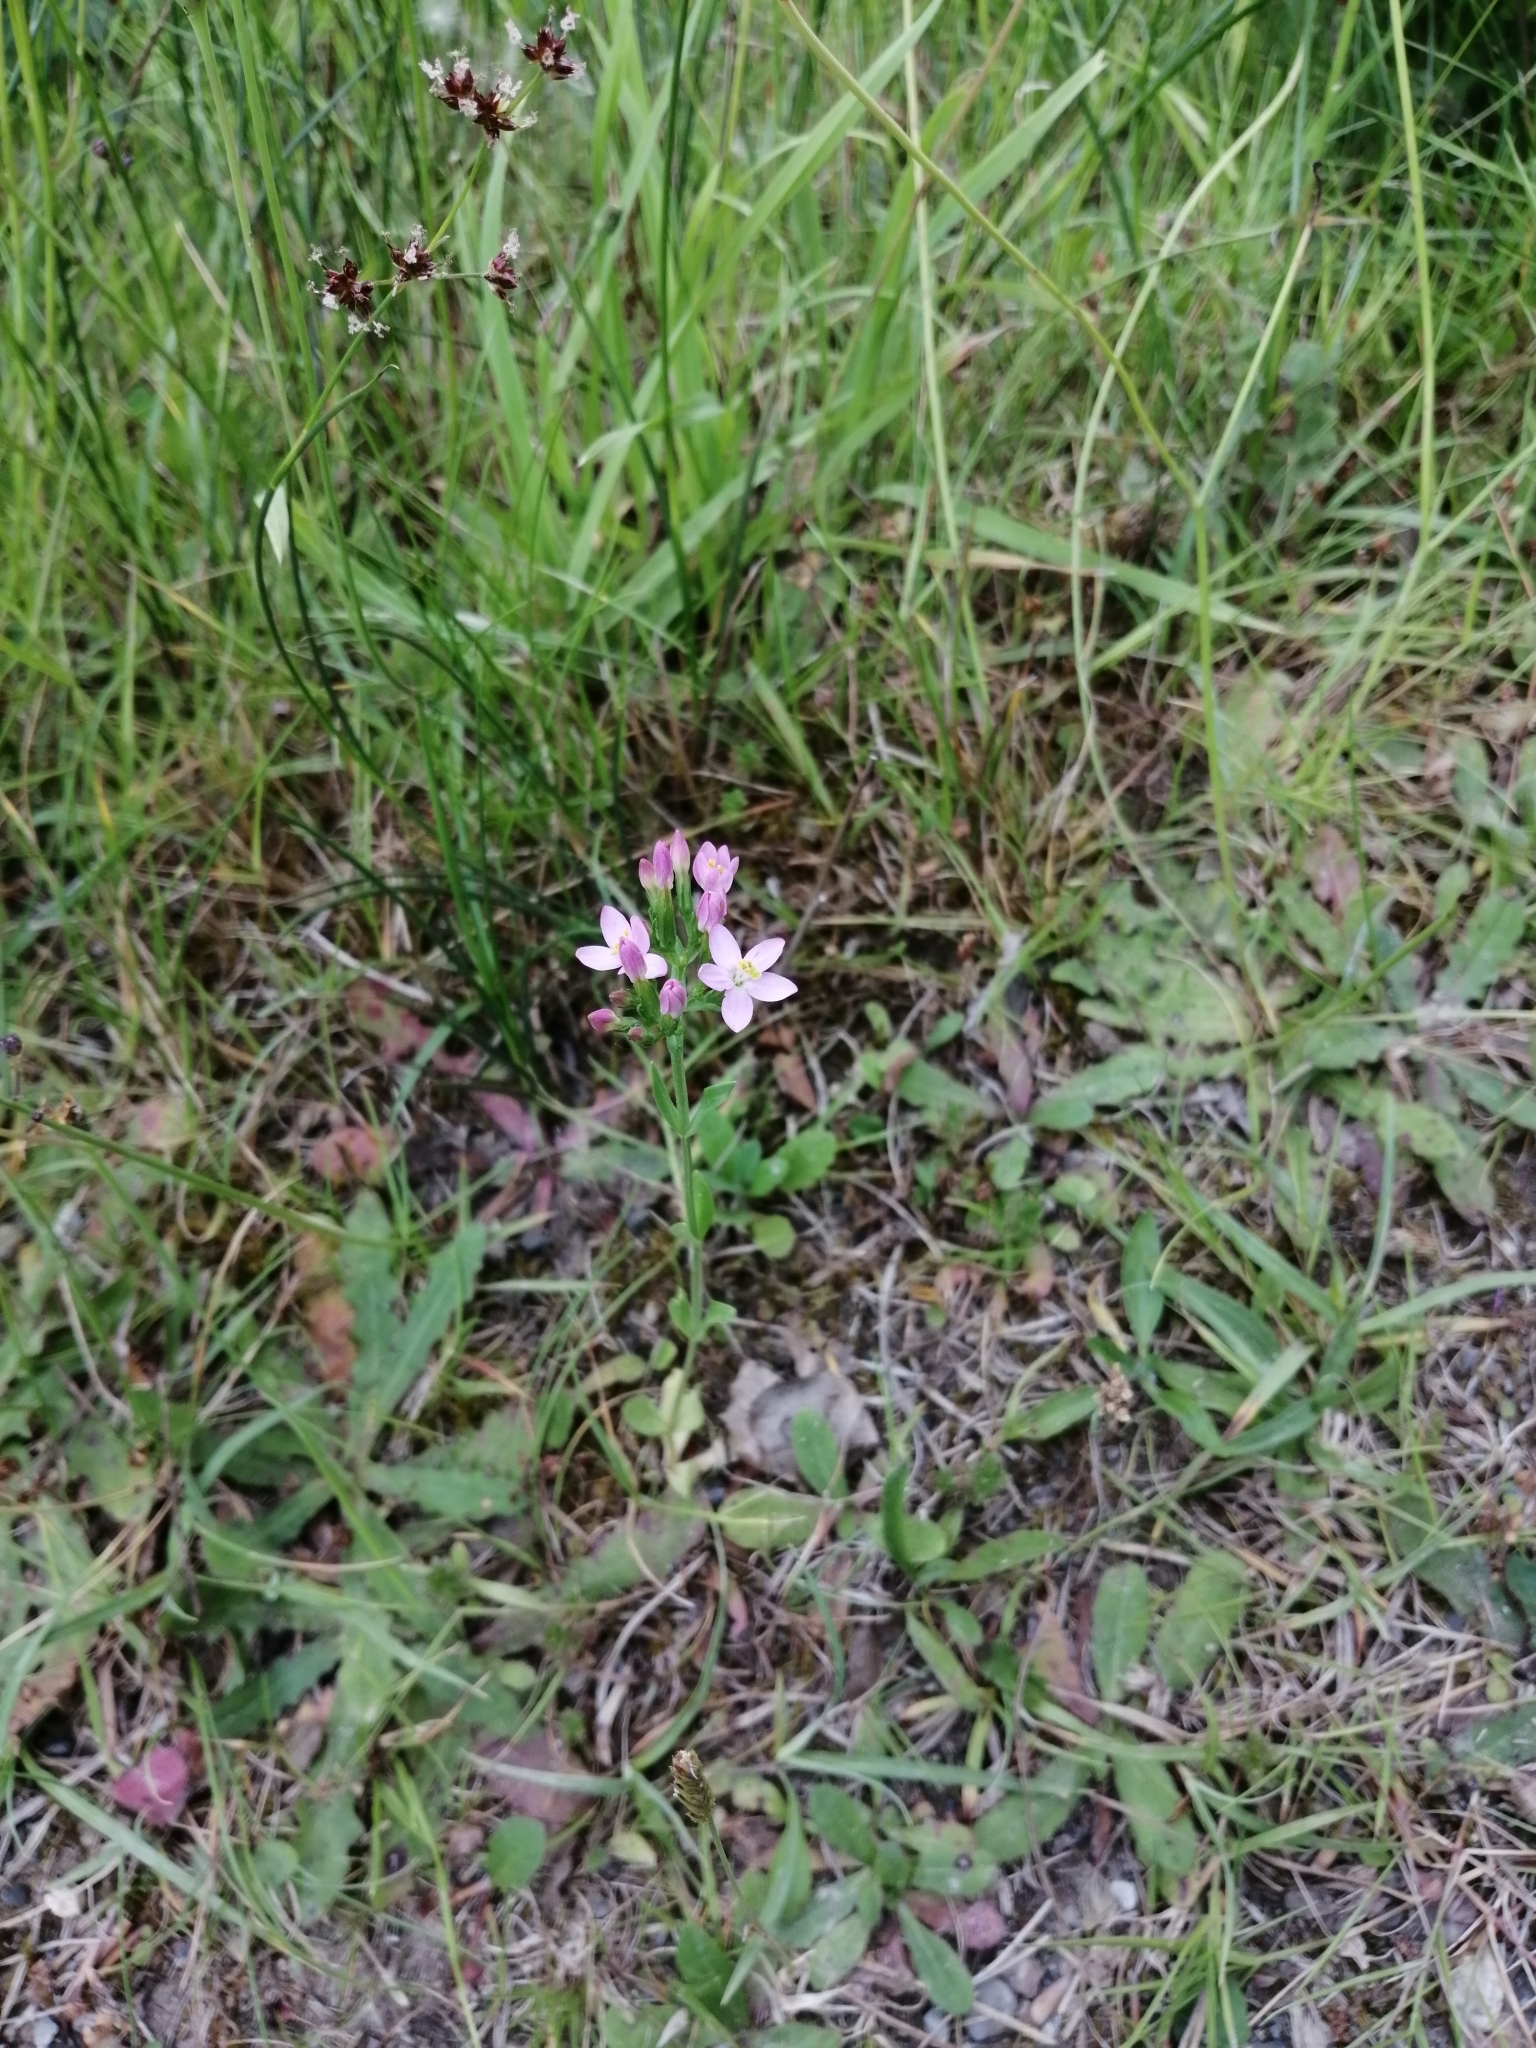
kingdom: Plantae
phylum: Tracheophyta
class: Magnoliopsida
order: Gentianales
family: Gentianaceae
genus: Centaurium
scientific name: Centaurium erythraea
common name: Common centaury
